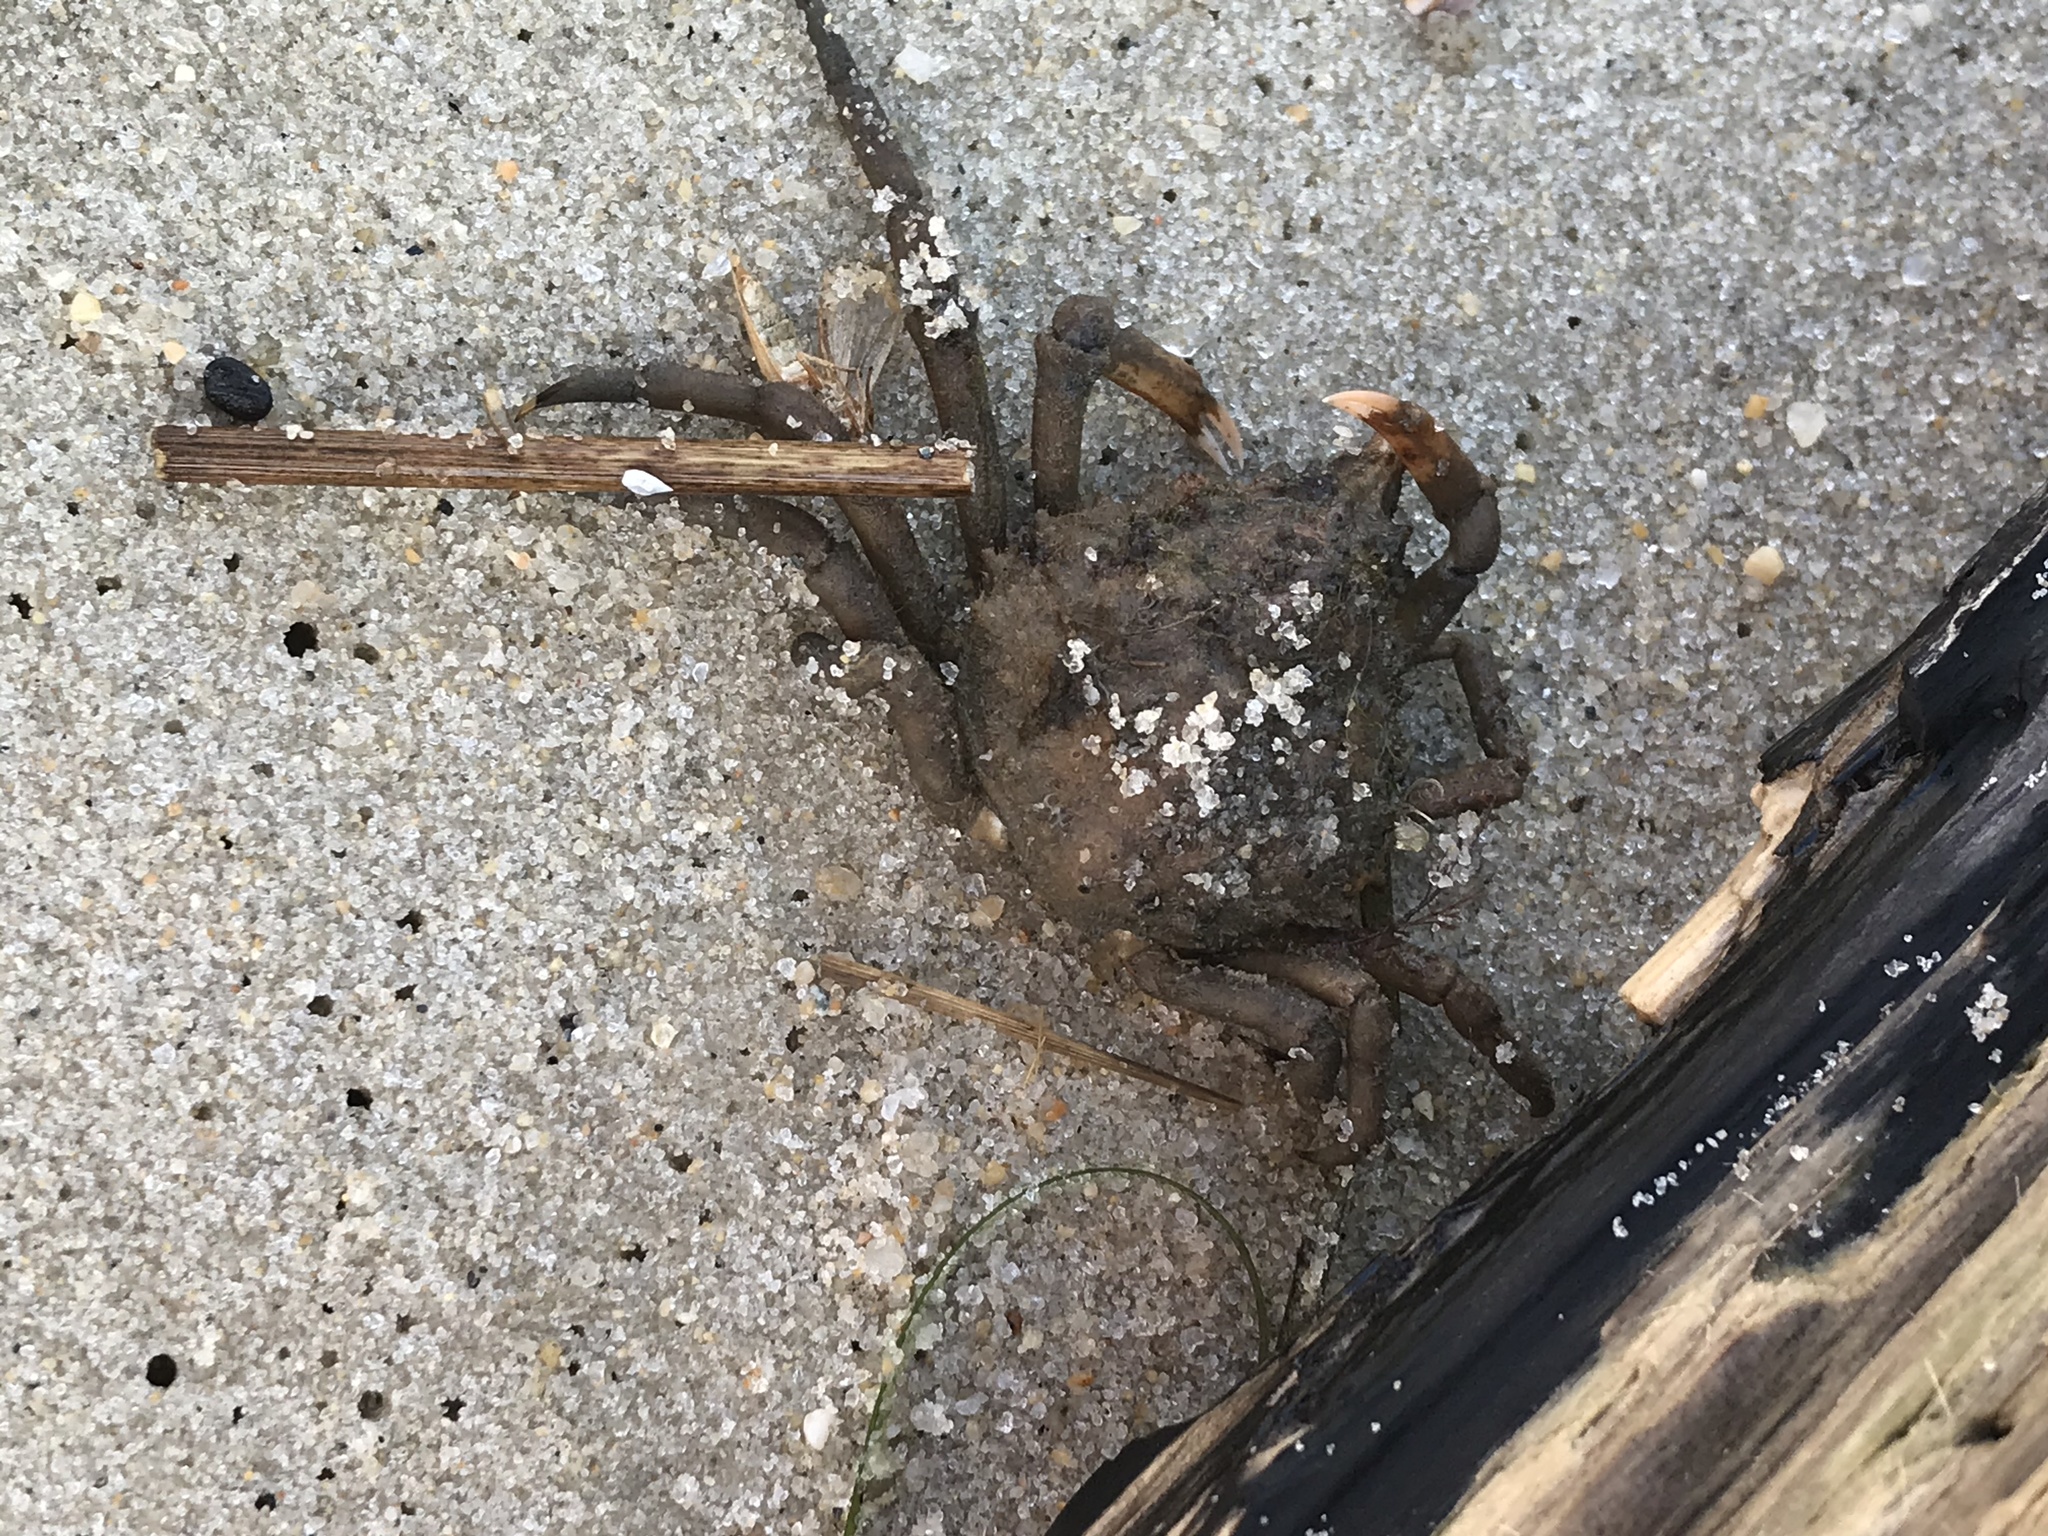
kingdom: Animalia
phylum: Arthropoda
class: Malacostraca
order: Decapoda
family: Epialtidae
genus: Libinia
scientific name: Libinia emarginata
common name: Common spider crab
